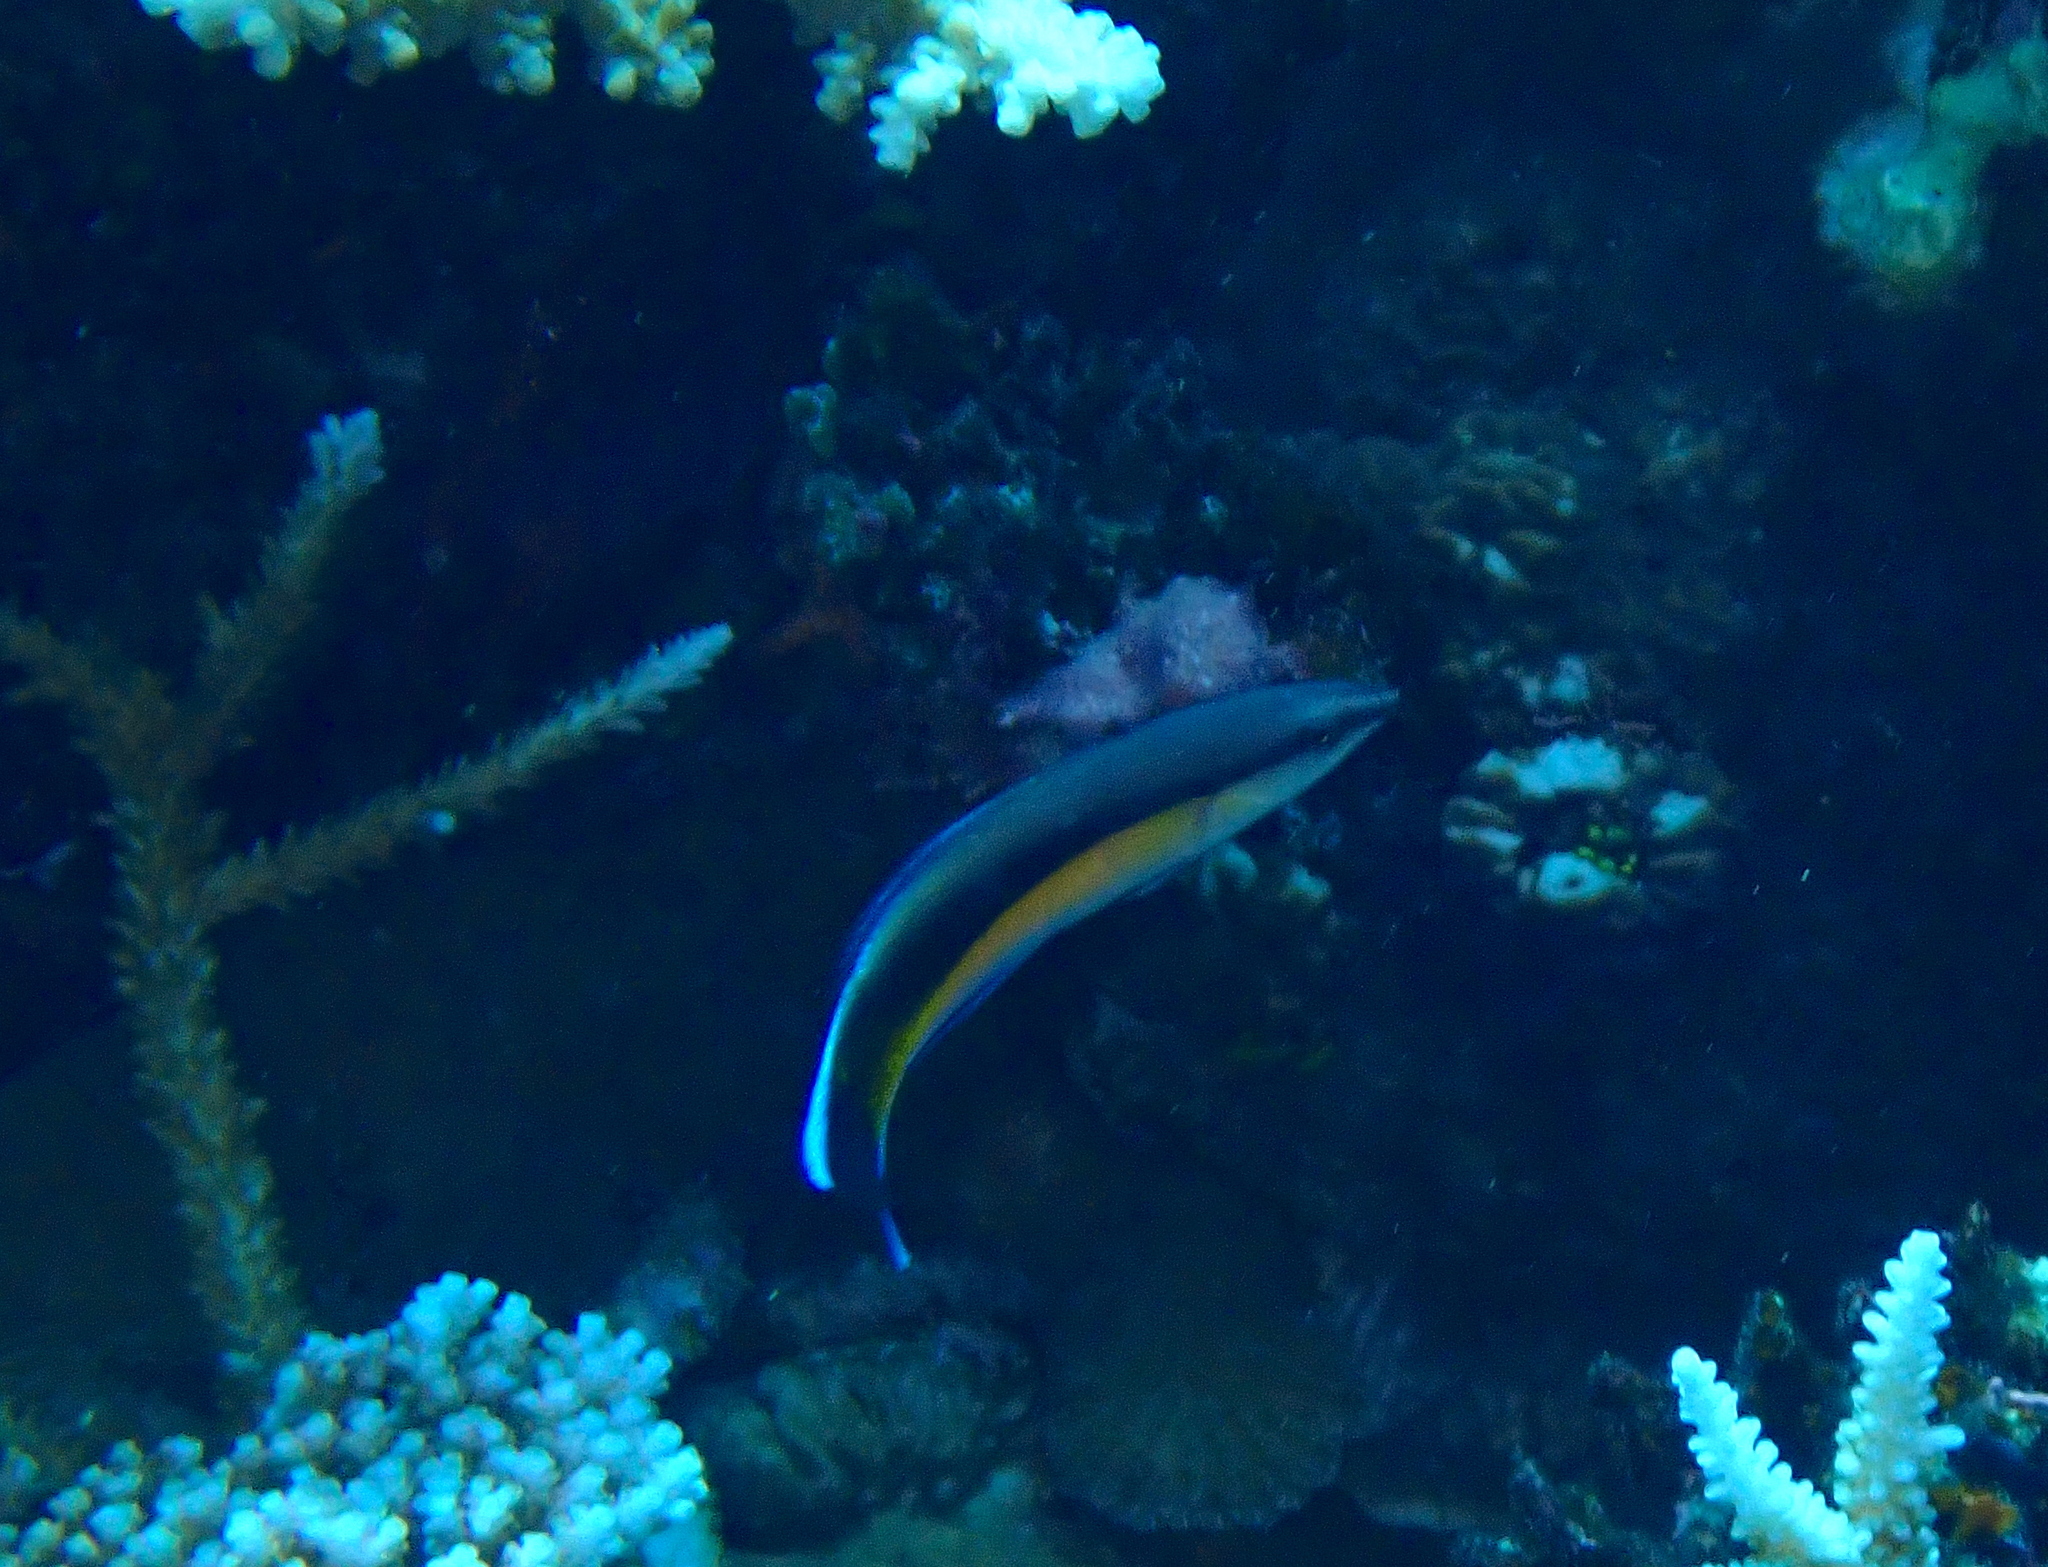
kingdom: Animalia
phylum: Chordata
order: Perciformes
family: Labridae
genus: Labroides
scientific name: Labroides dimidiatus
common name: Blue diesel wrasse
